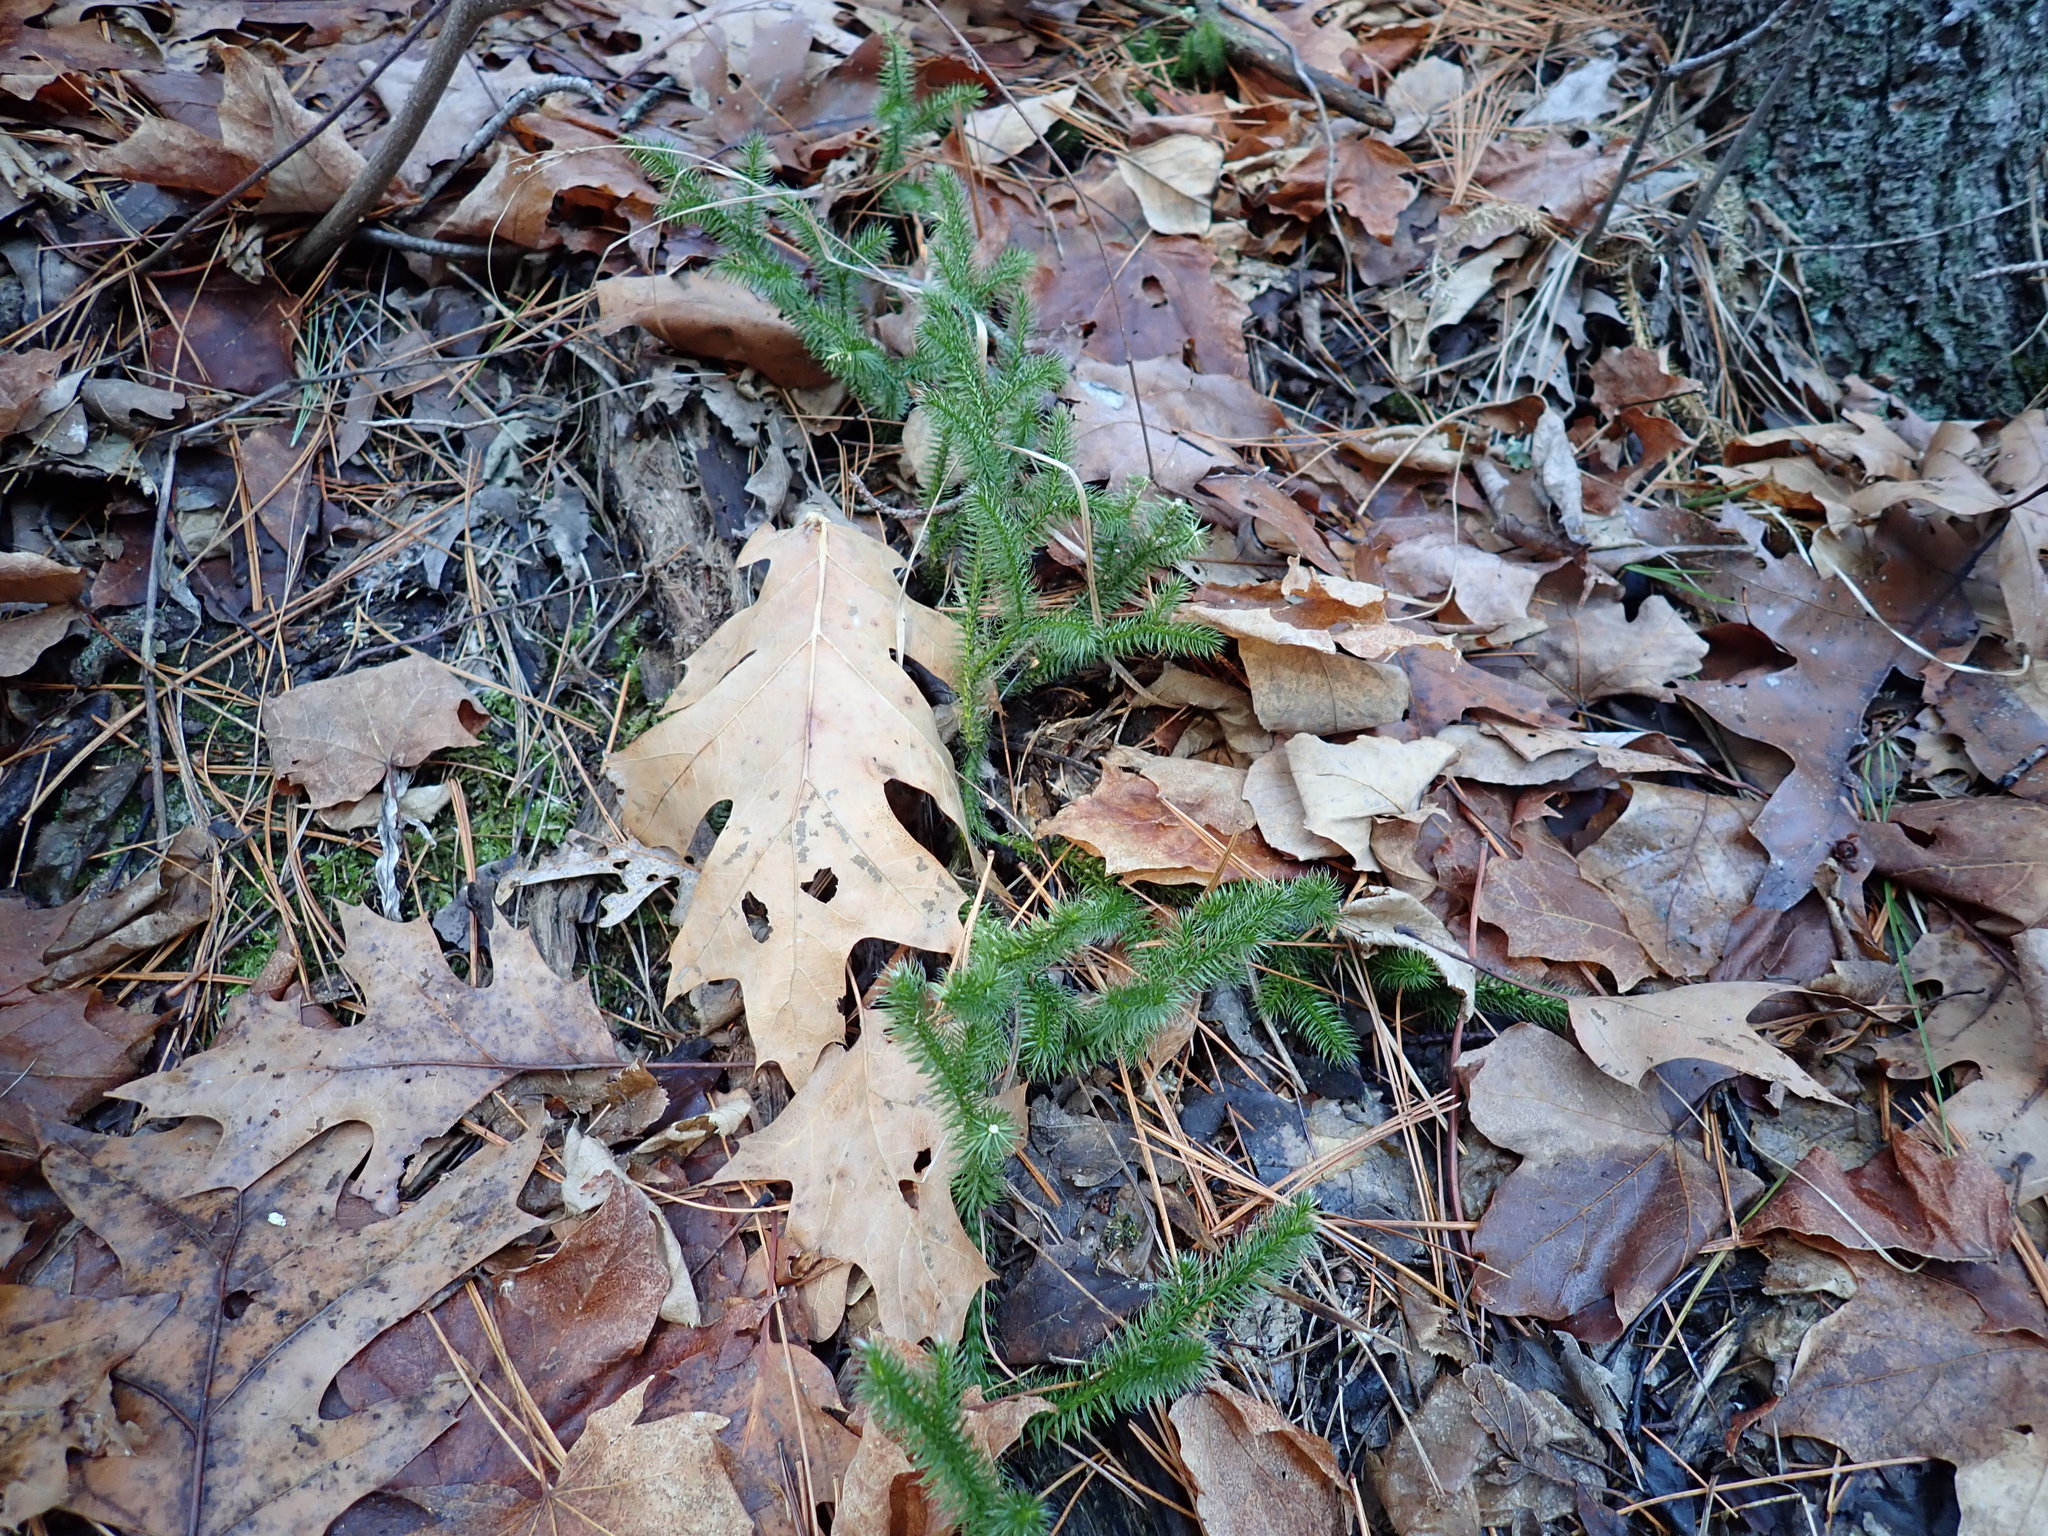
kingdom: Plantae
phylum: Tracheophyta
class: Lycopodiopsida
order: Lycopodiales
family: Lycopodiaceae
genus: Lycopodium
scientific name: Lycopodium clavatum
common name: Stag's-horn clubmoss
